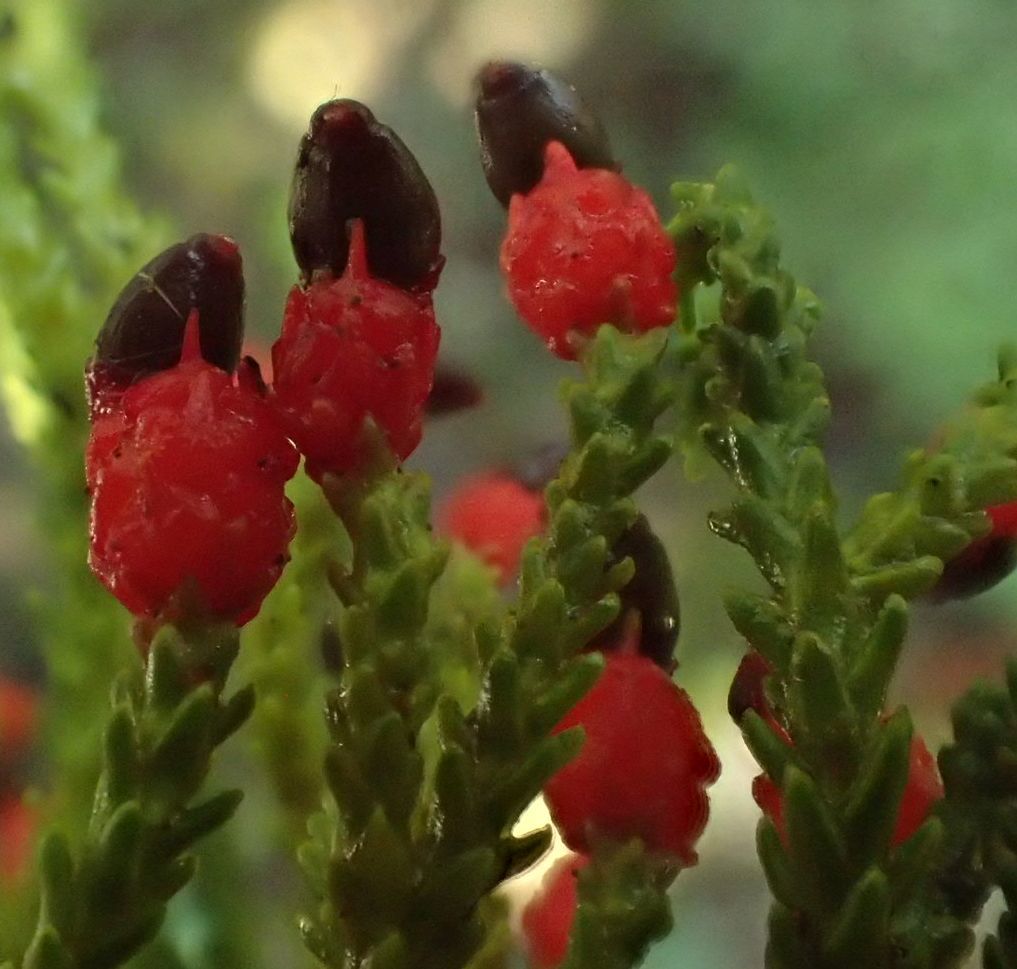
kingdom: Plantae
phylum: Tracheophyta
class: Pinopsida
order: Pinales
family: Podocarpaceae
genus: Dacrycarpus
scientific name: Dacrycarpus dacrydioides
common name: White pine
